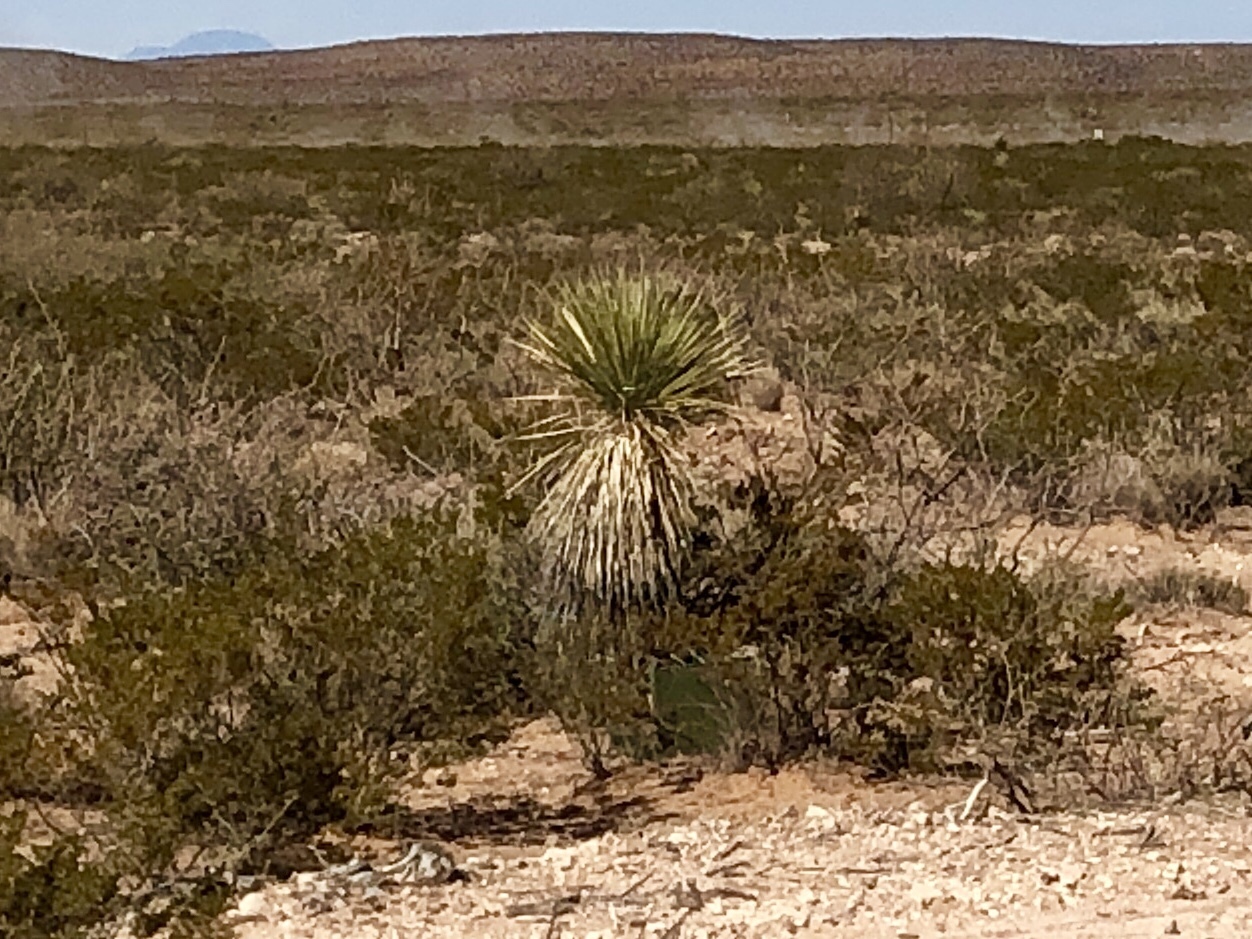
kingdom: Plantae
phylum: Tracheophyta
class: Liliopsida
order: Asparagales
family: Asparagaceae
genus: Yucca
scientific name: Yucca elata
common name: Palmella
